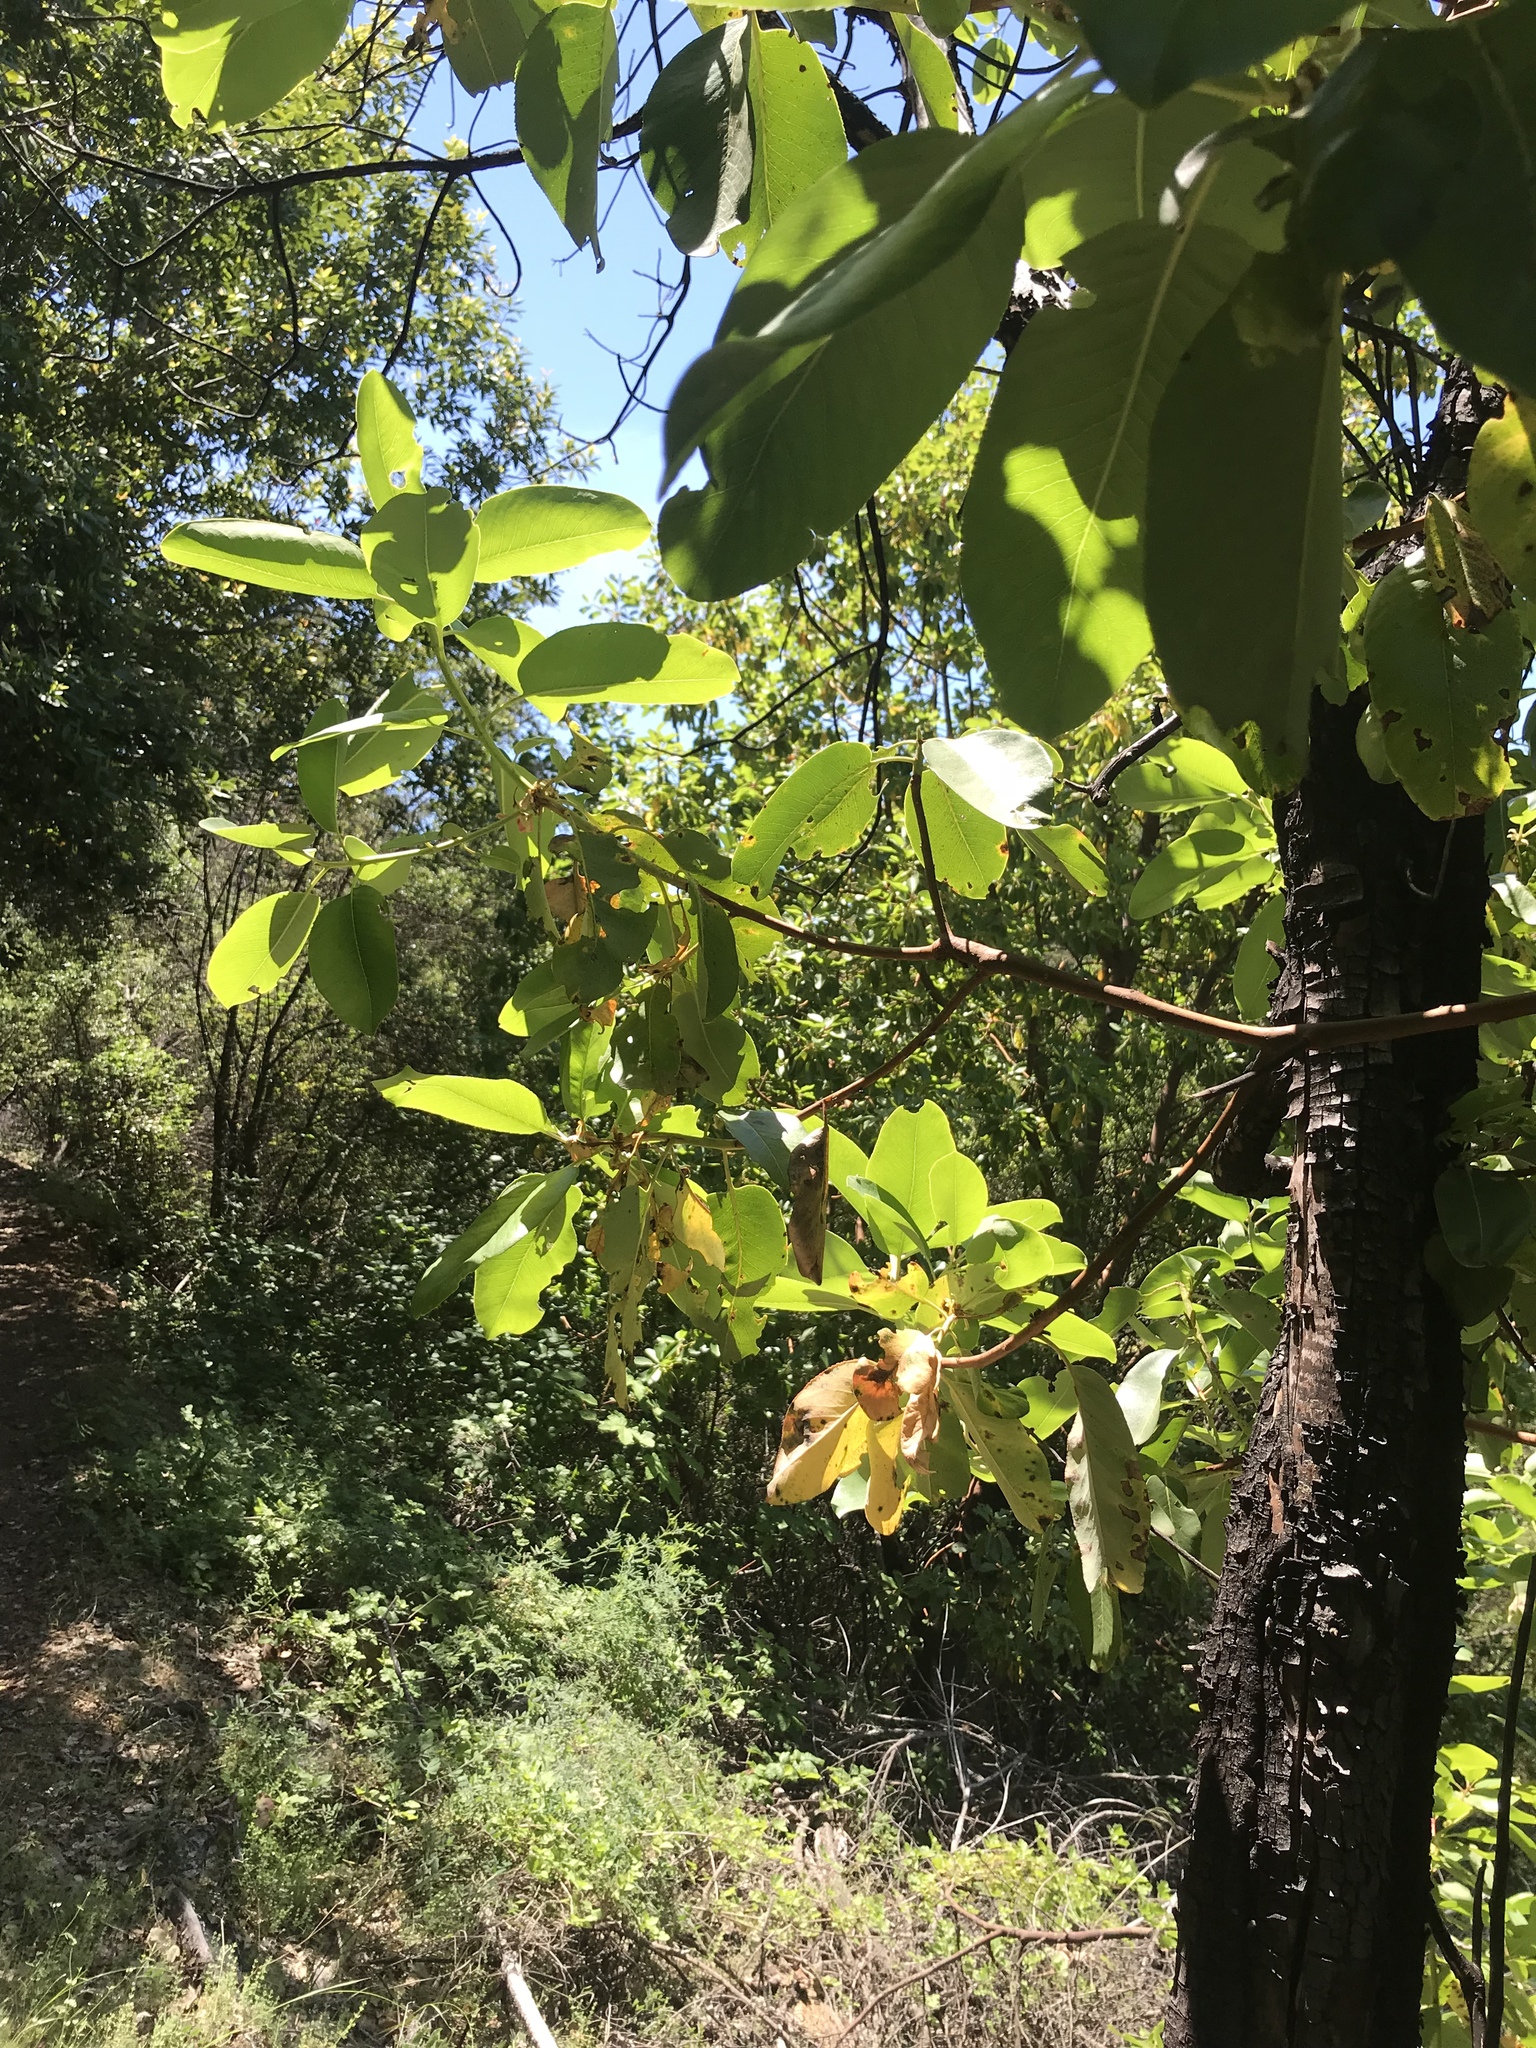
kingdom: Plantae
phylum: Tracheophyta
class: Magnoliopsida
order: Ericales
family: Ericaceae
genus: Arbutus
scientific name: Arbutus menziesii
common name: Pacific madrone
